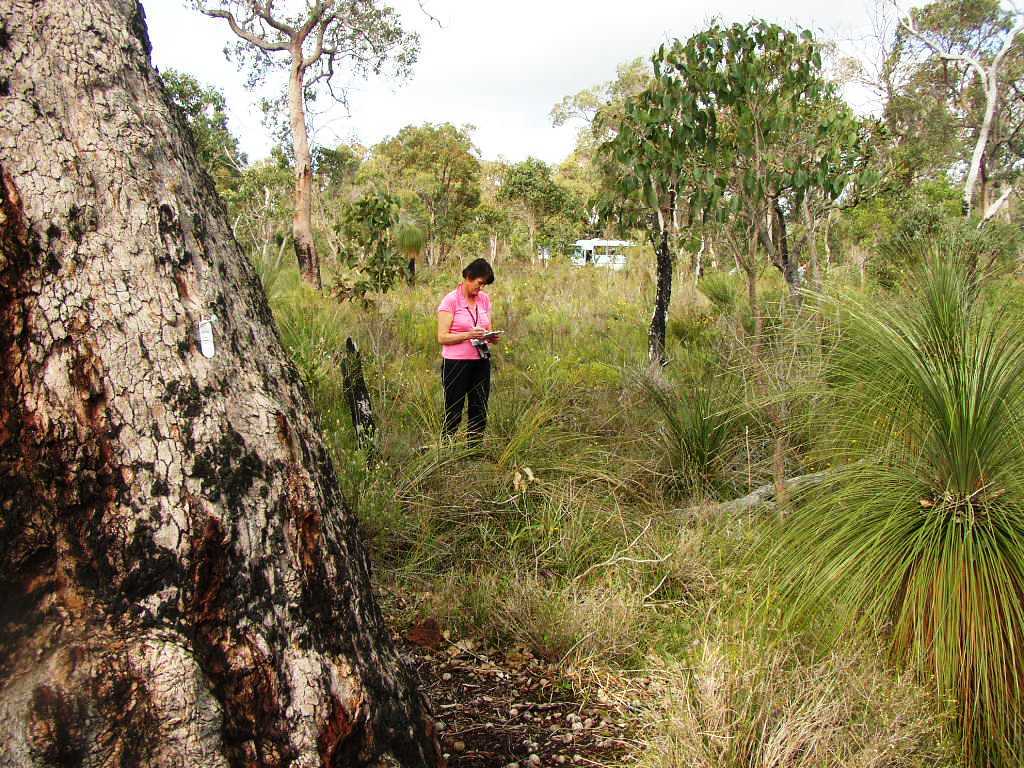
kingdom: Plantae
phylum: Tracheophyta
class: Liliopsida
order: Arecales
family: Dasypogonaceae
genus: Kingia
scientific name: Kingia australis
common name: Black gin
